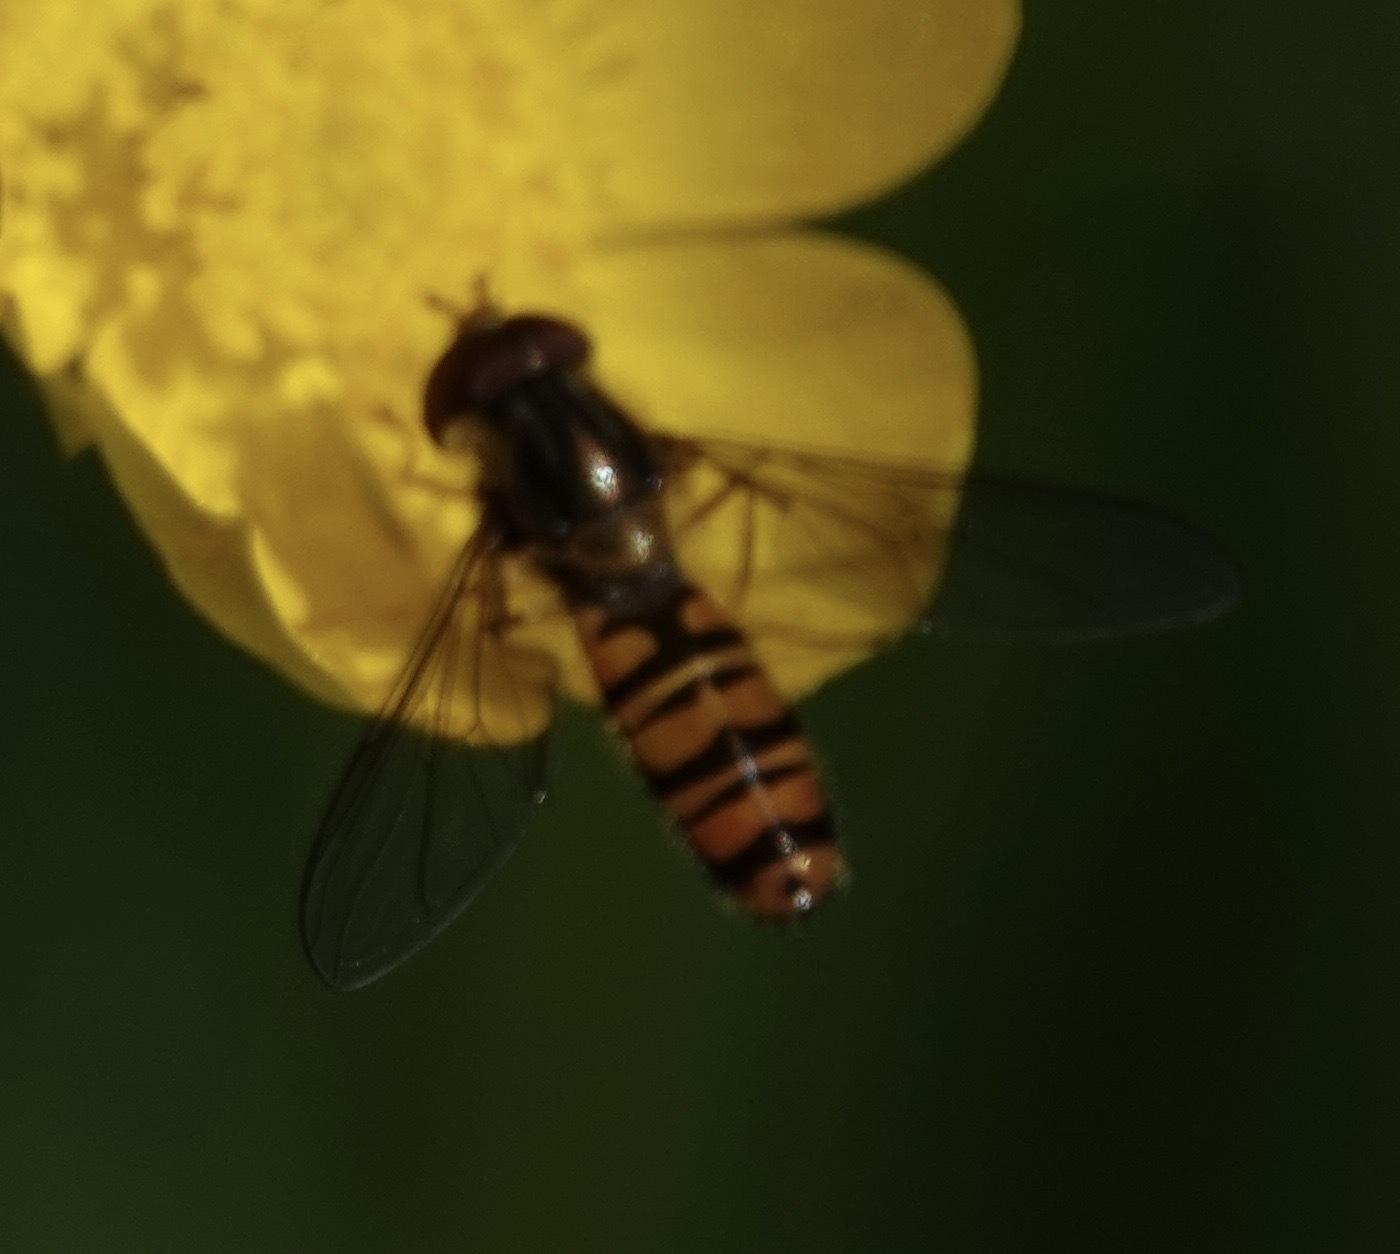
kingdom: Animalia
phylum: Arthropoda
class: Insecta
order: Diptera
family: Syrphidae
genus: Episyrphus
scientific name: Episyrphus balteatus
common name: Marmalade hoverfly
